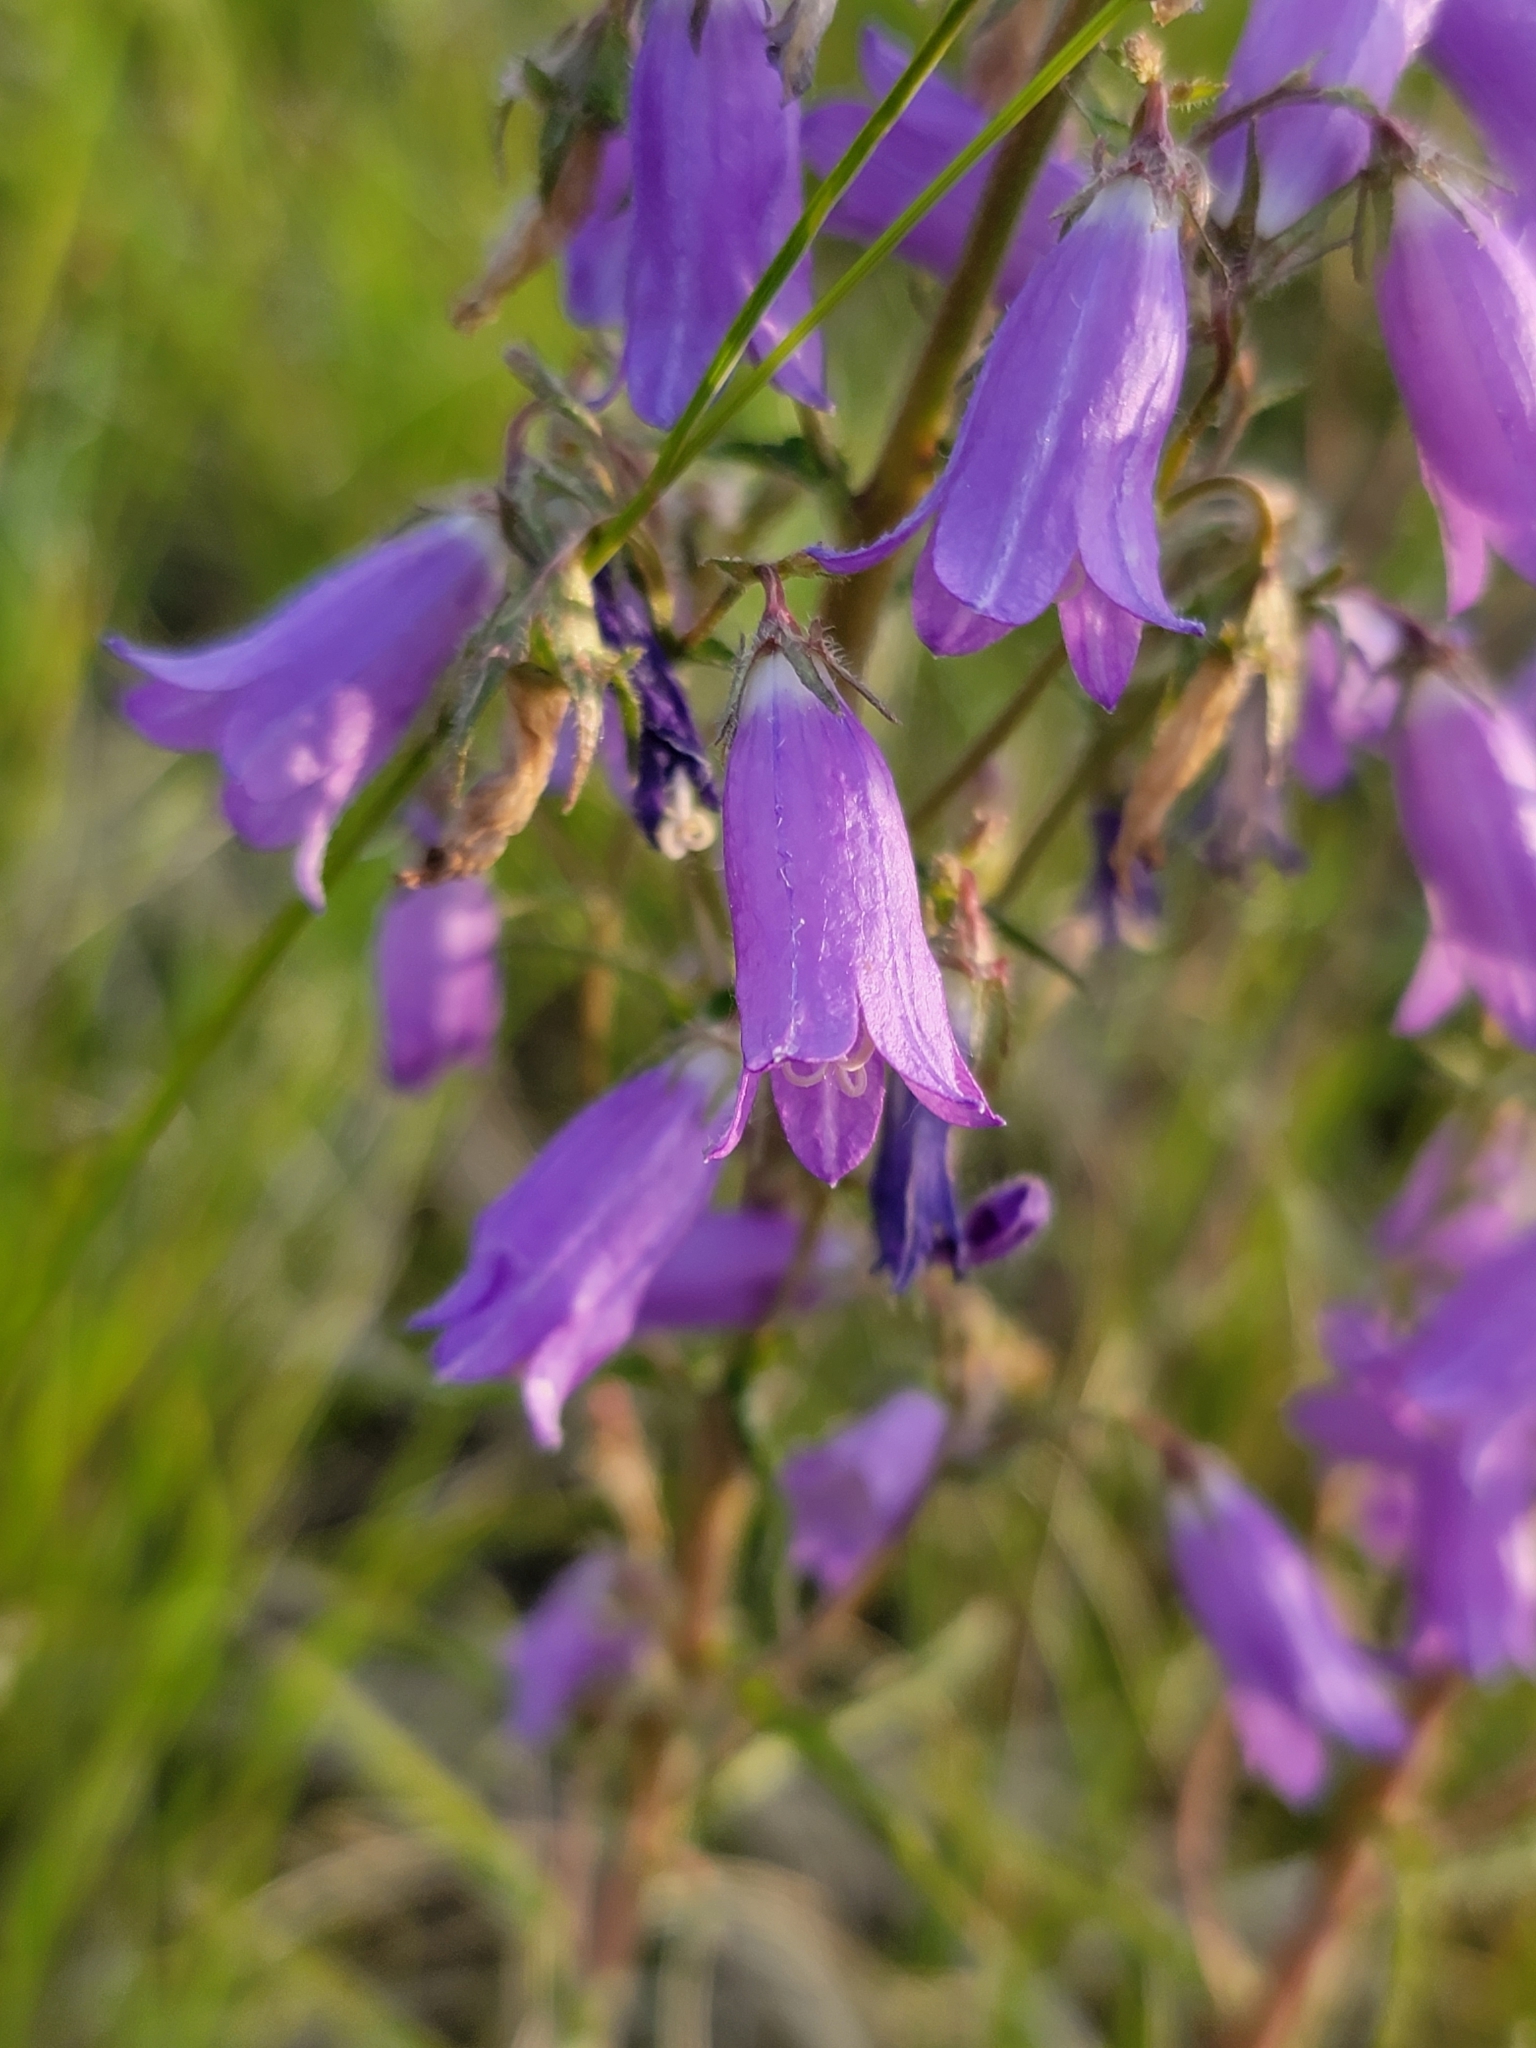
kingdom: Plantae
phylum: Tracheophyta
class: Magnoliopsida
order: Asterales
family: Campanulaceae
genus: Campanula
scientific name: Campanula sibirica
